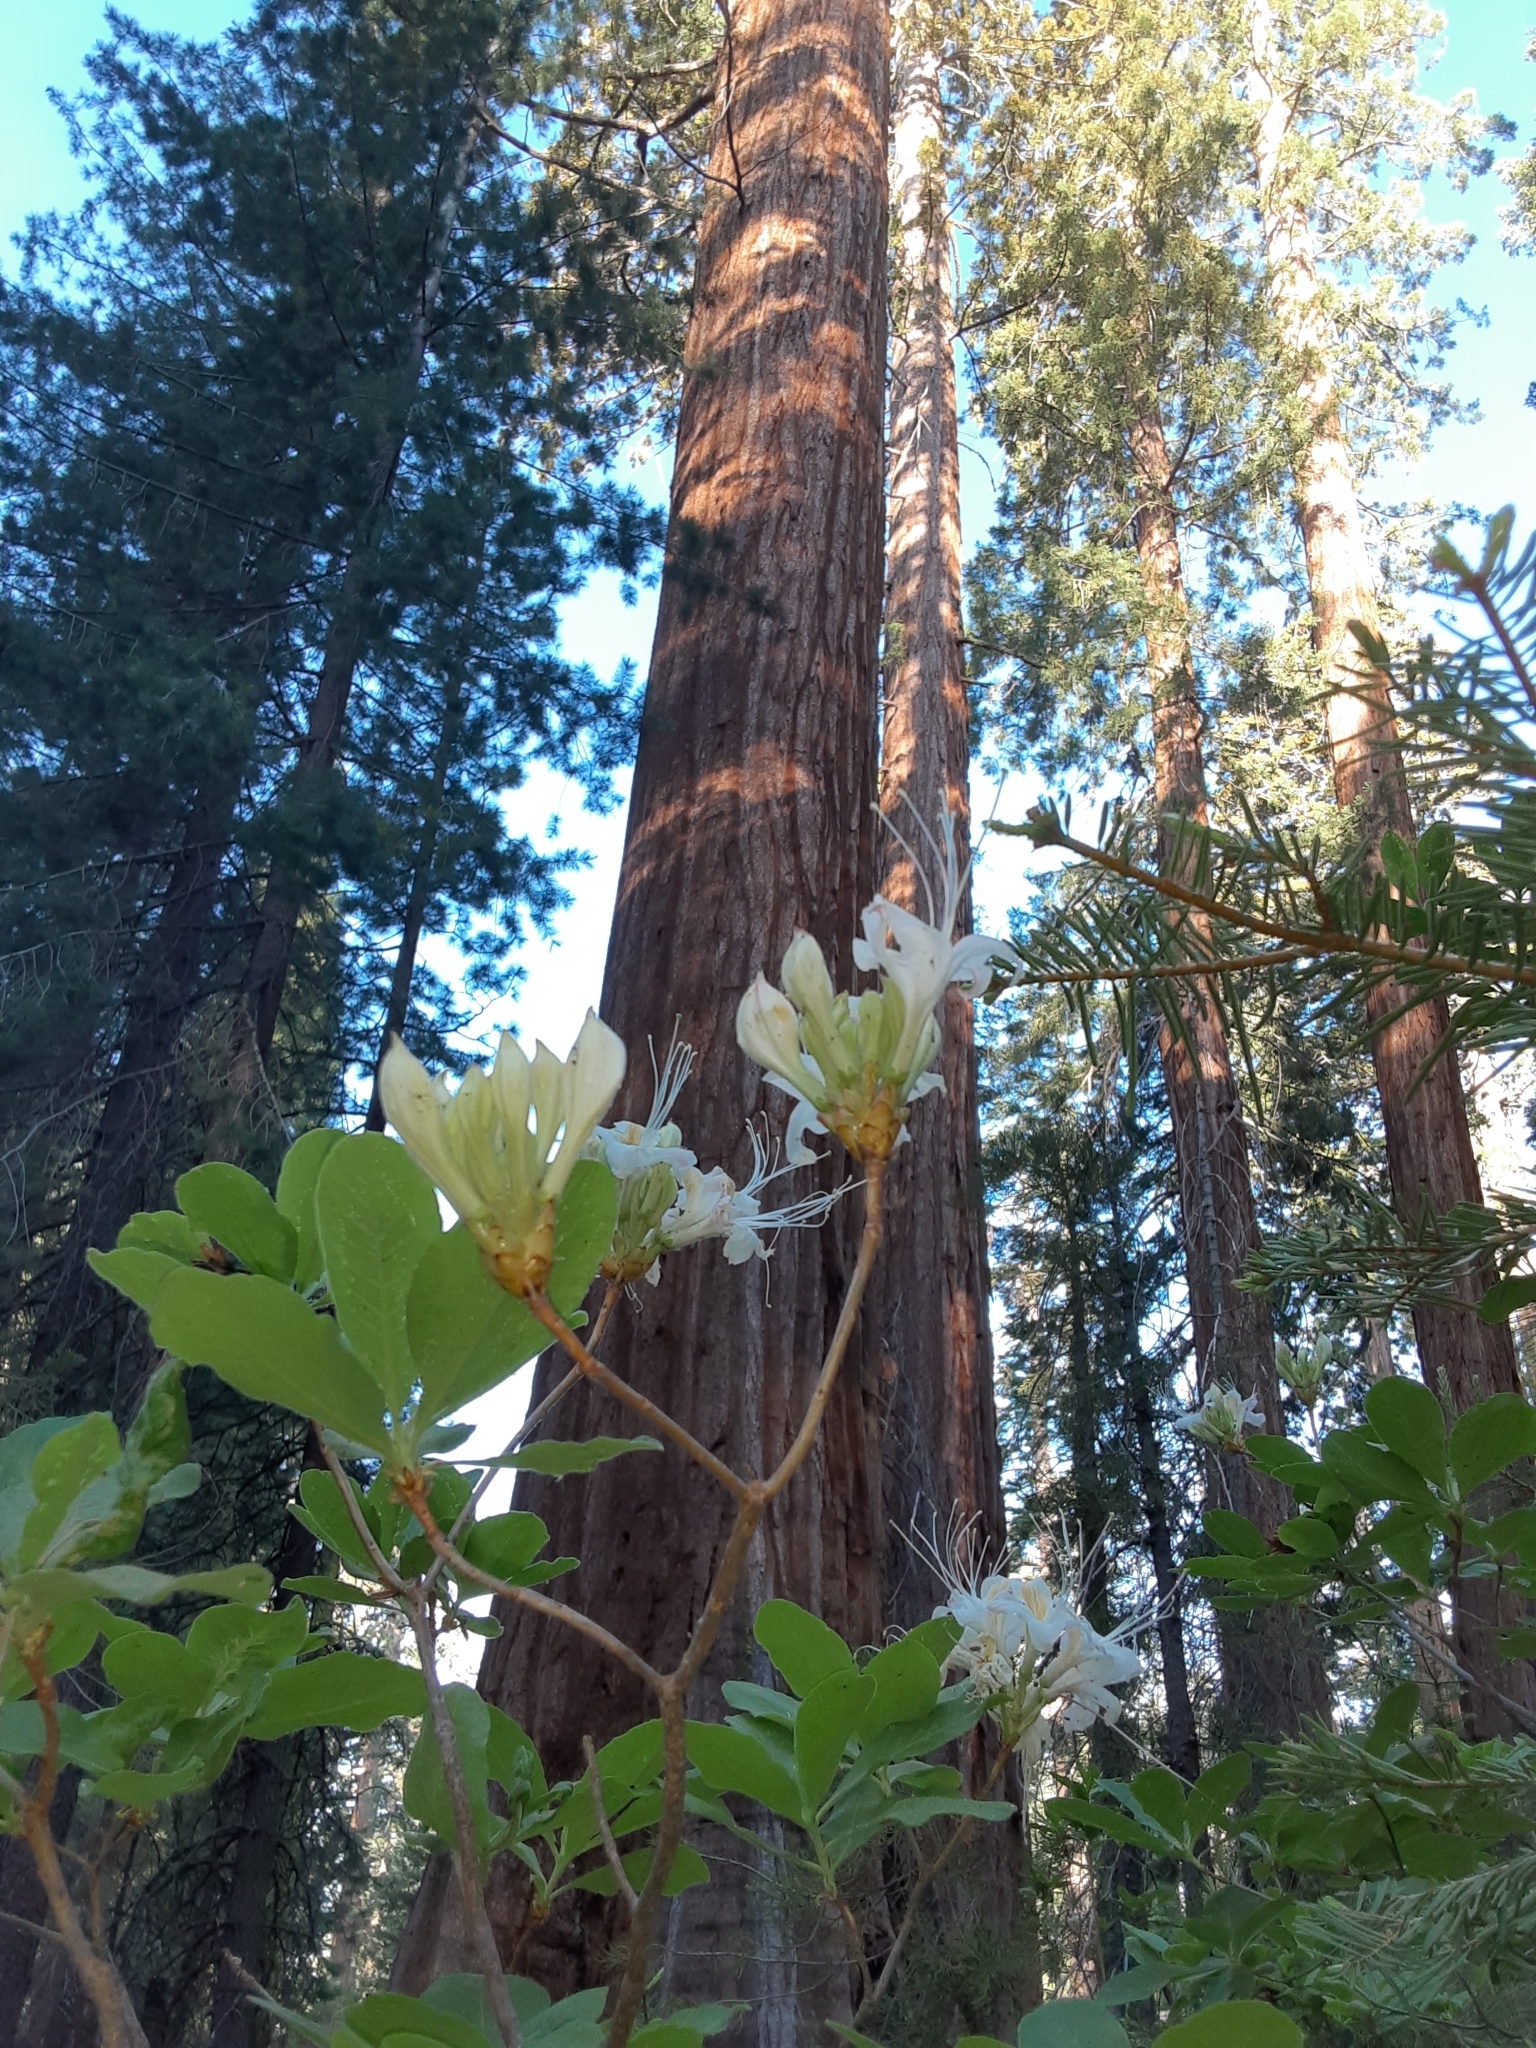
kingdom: Plantae
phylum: Tracheophyta
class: Magnoliopsida
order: Ericales
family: Ericaceae
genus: Rhododendron
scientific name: Rhododendron occidentale
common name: Western azalea
